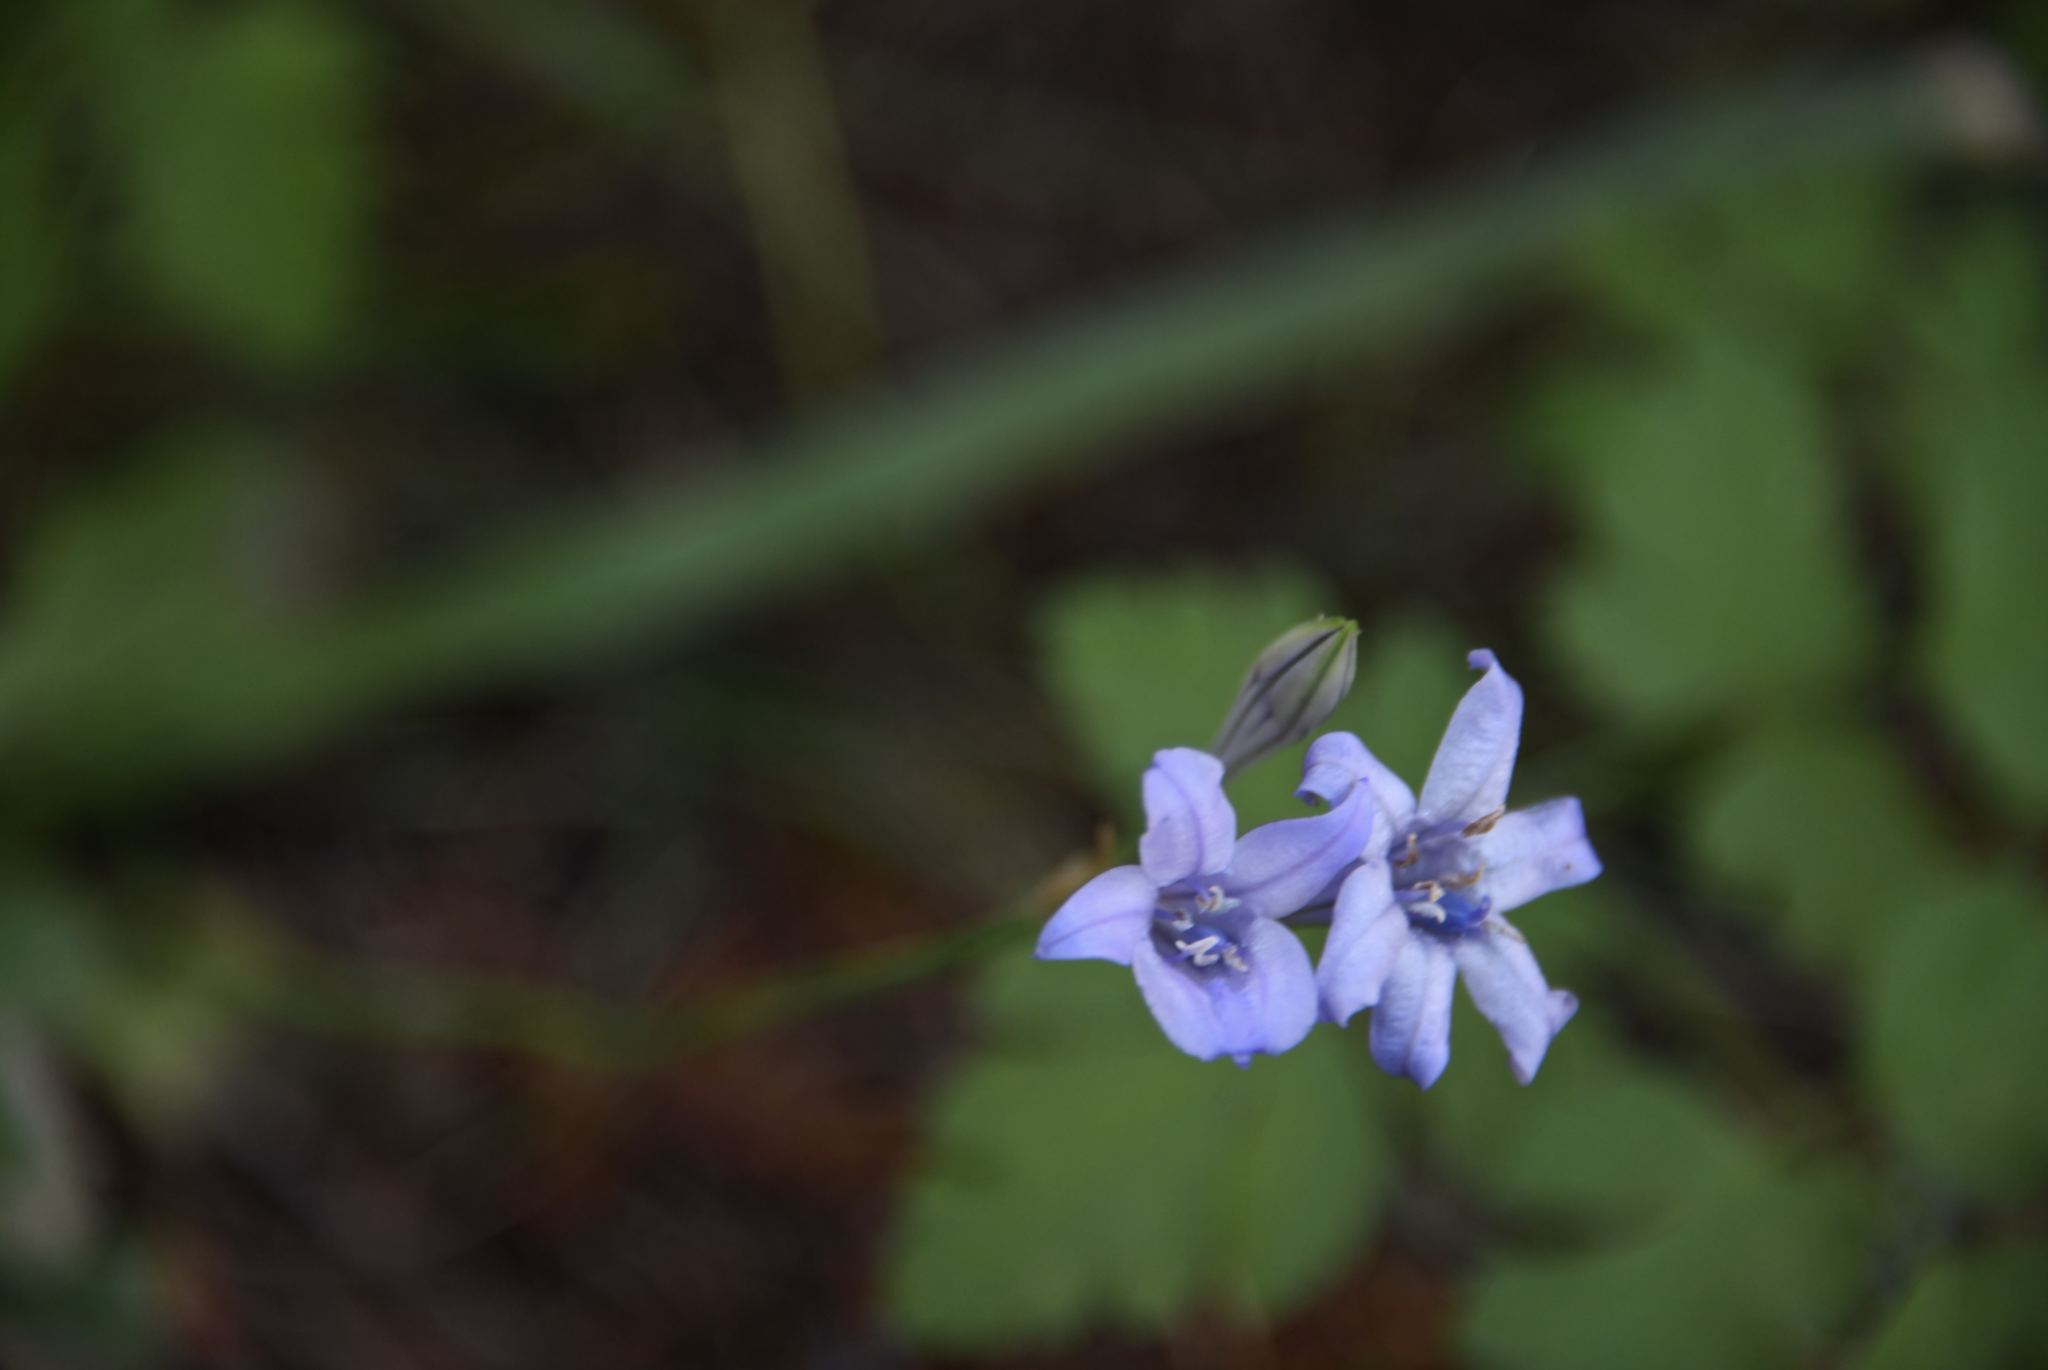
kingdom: Plantae
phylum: Tracheophyta
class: Liliopsida
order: Asparagales
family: Asparagaceae
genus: Triteleia
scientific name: Triteleia laxa
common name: Triplet-lily
